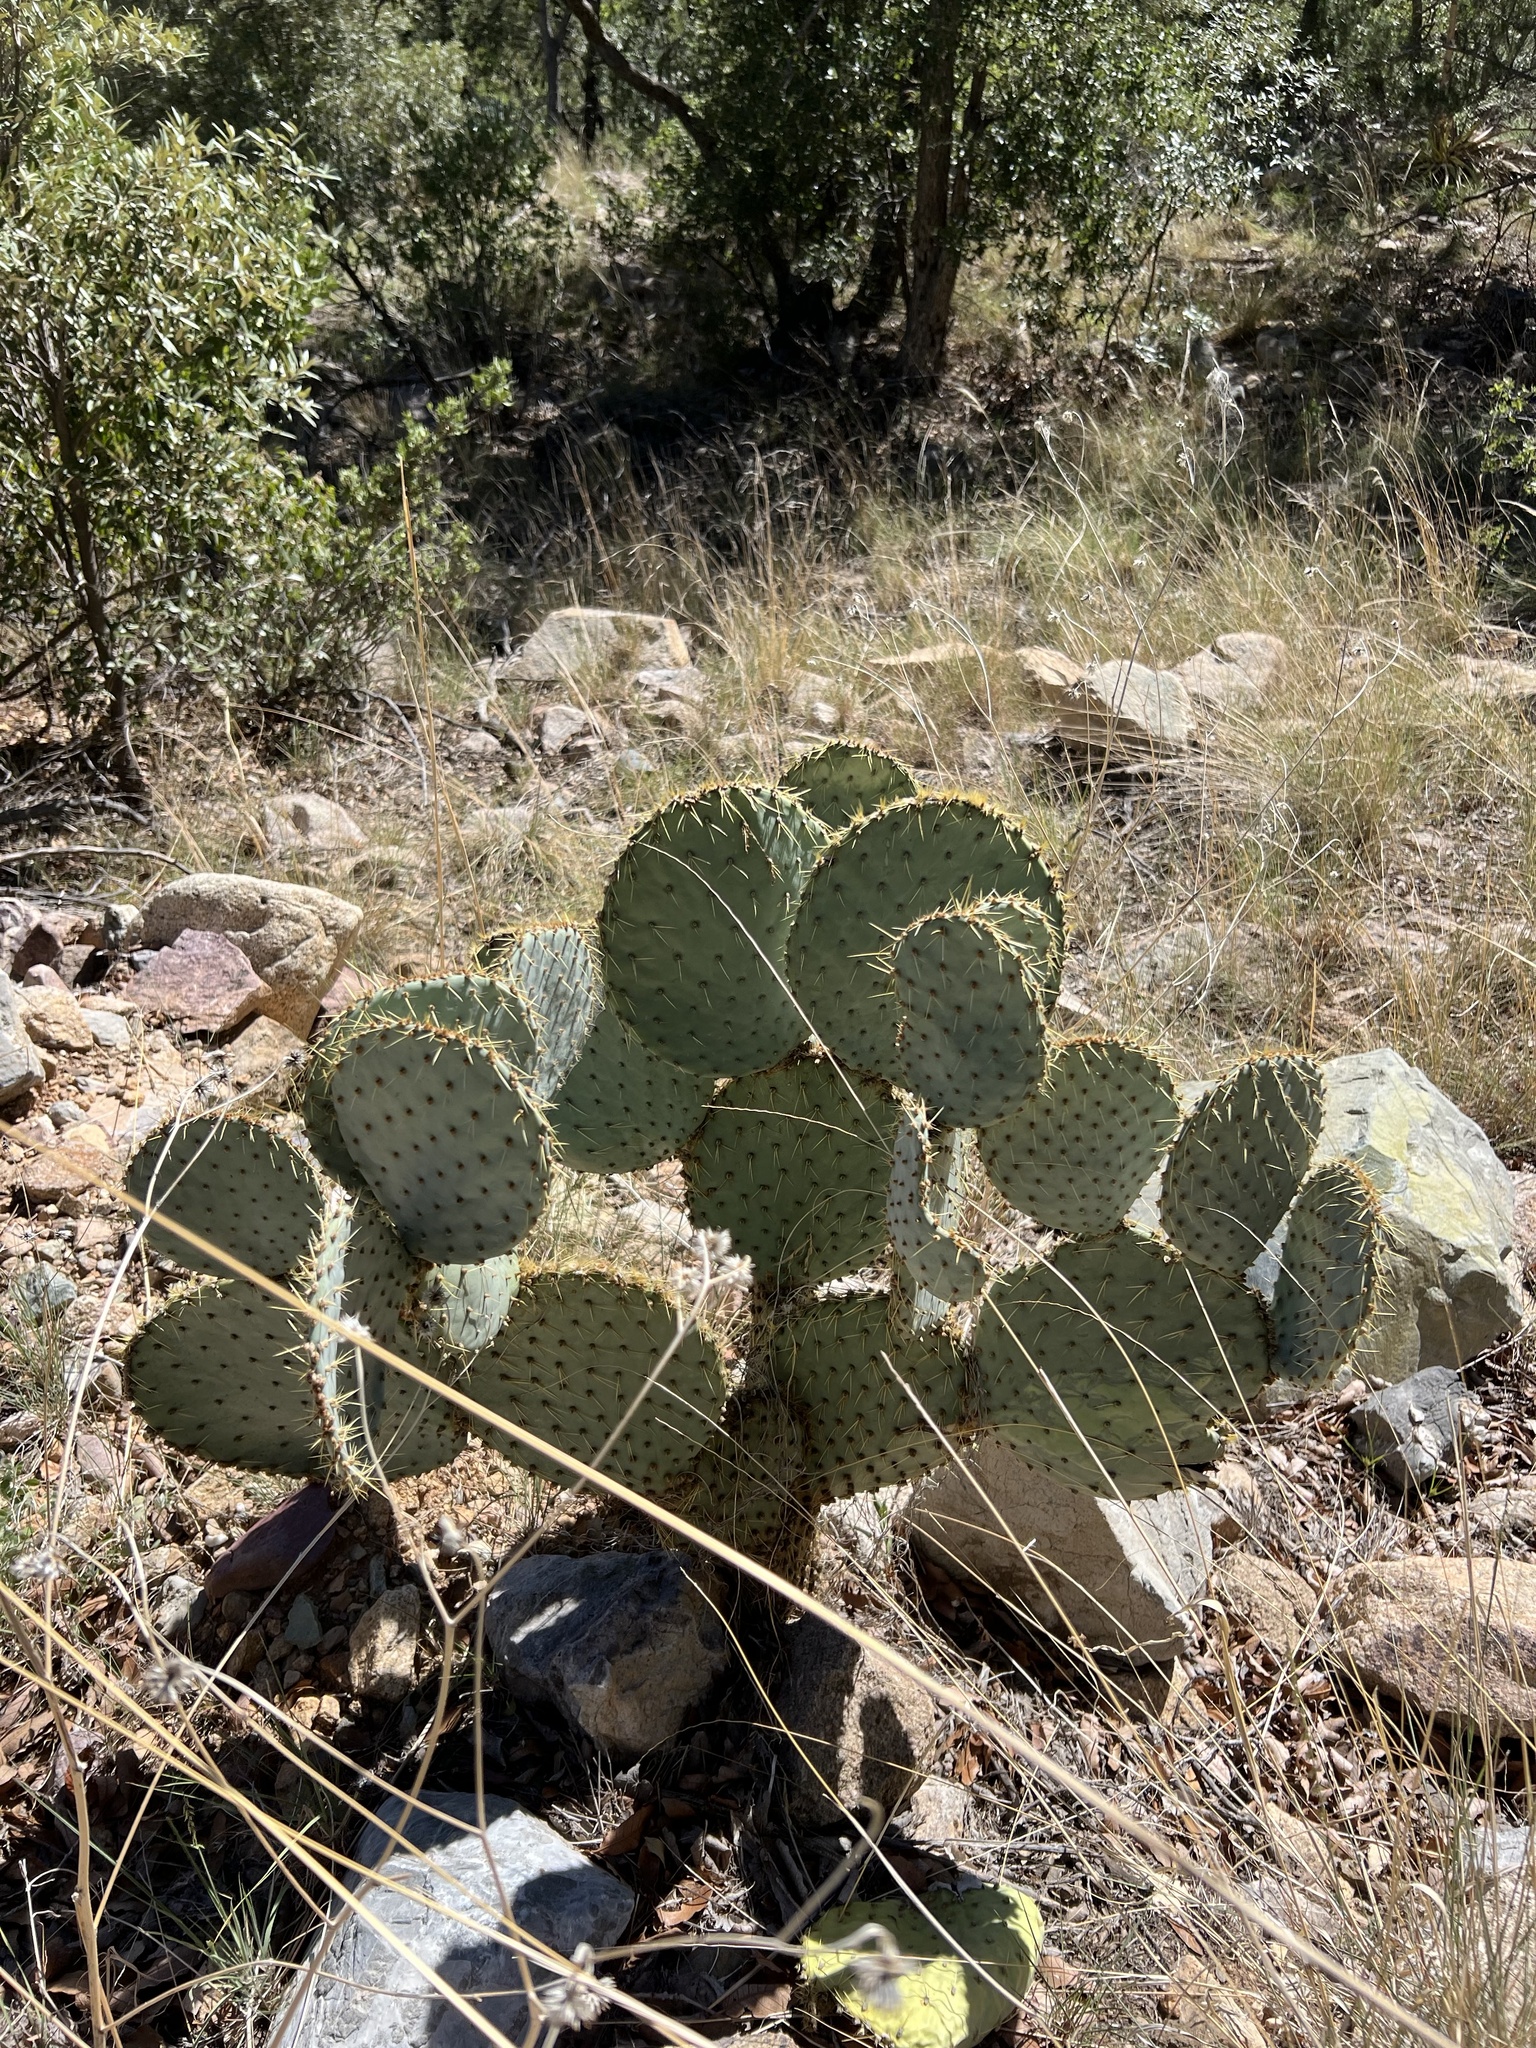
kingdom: Plantae
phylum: Tracheophyta
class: Magnoliopsida
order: Caryophyllales
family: Cactaceae
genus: Opuntia
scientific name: Opuntia chlorotica
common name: Dollar-joint prickly-pear
